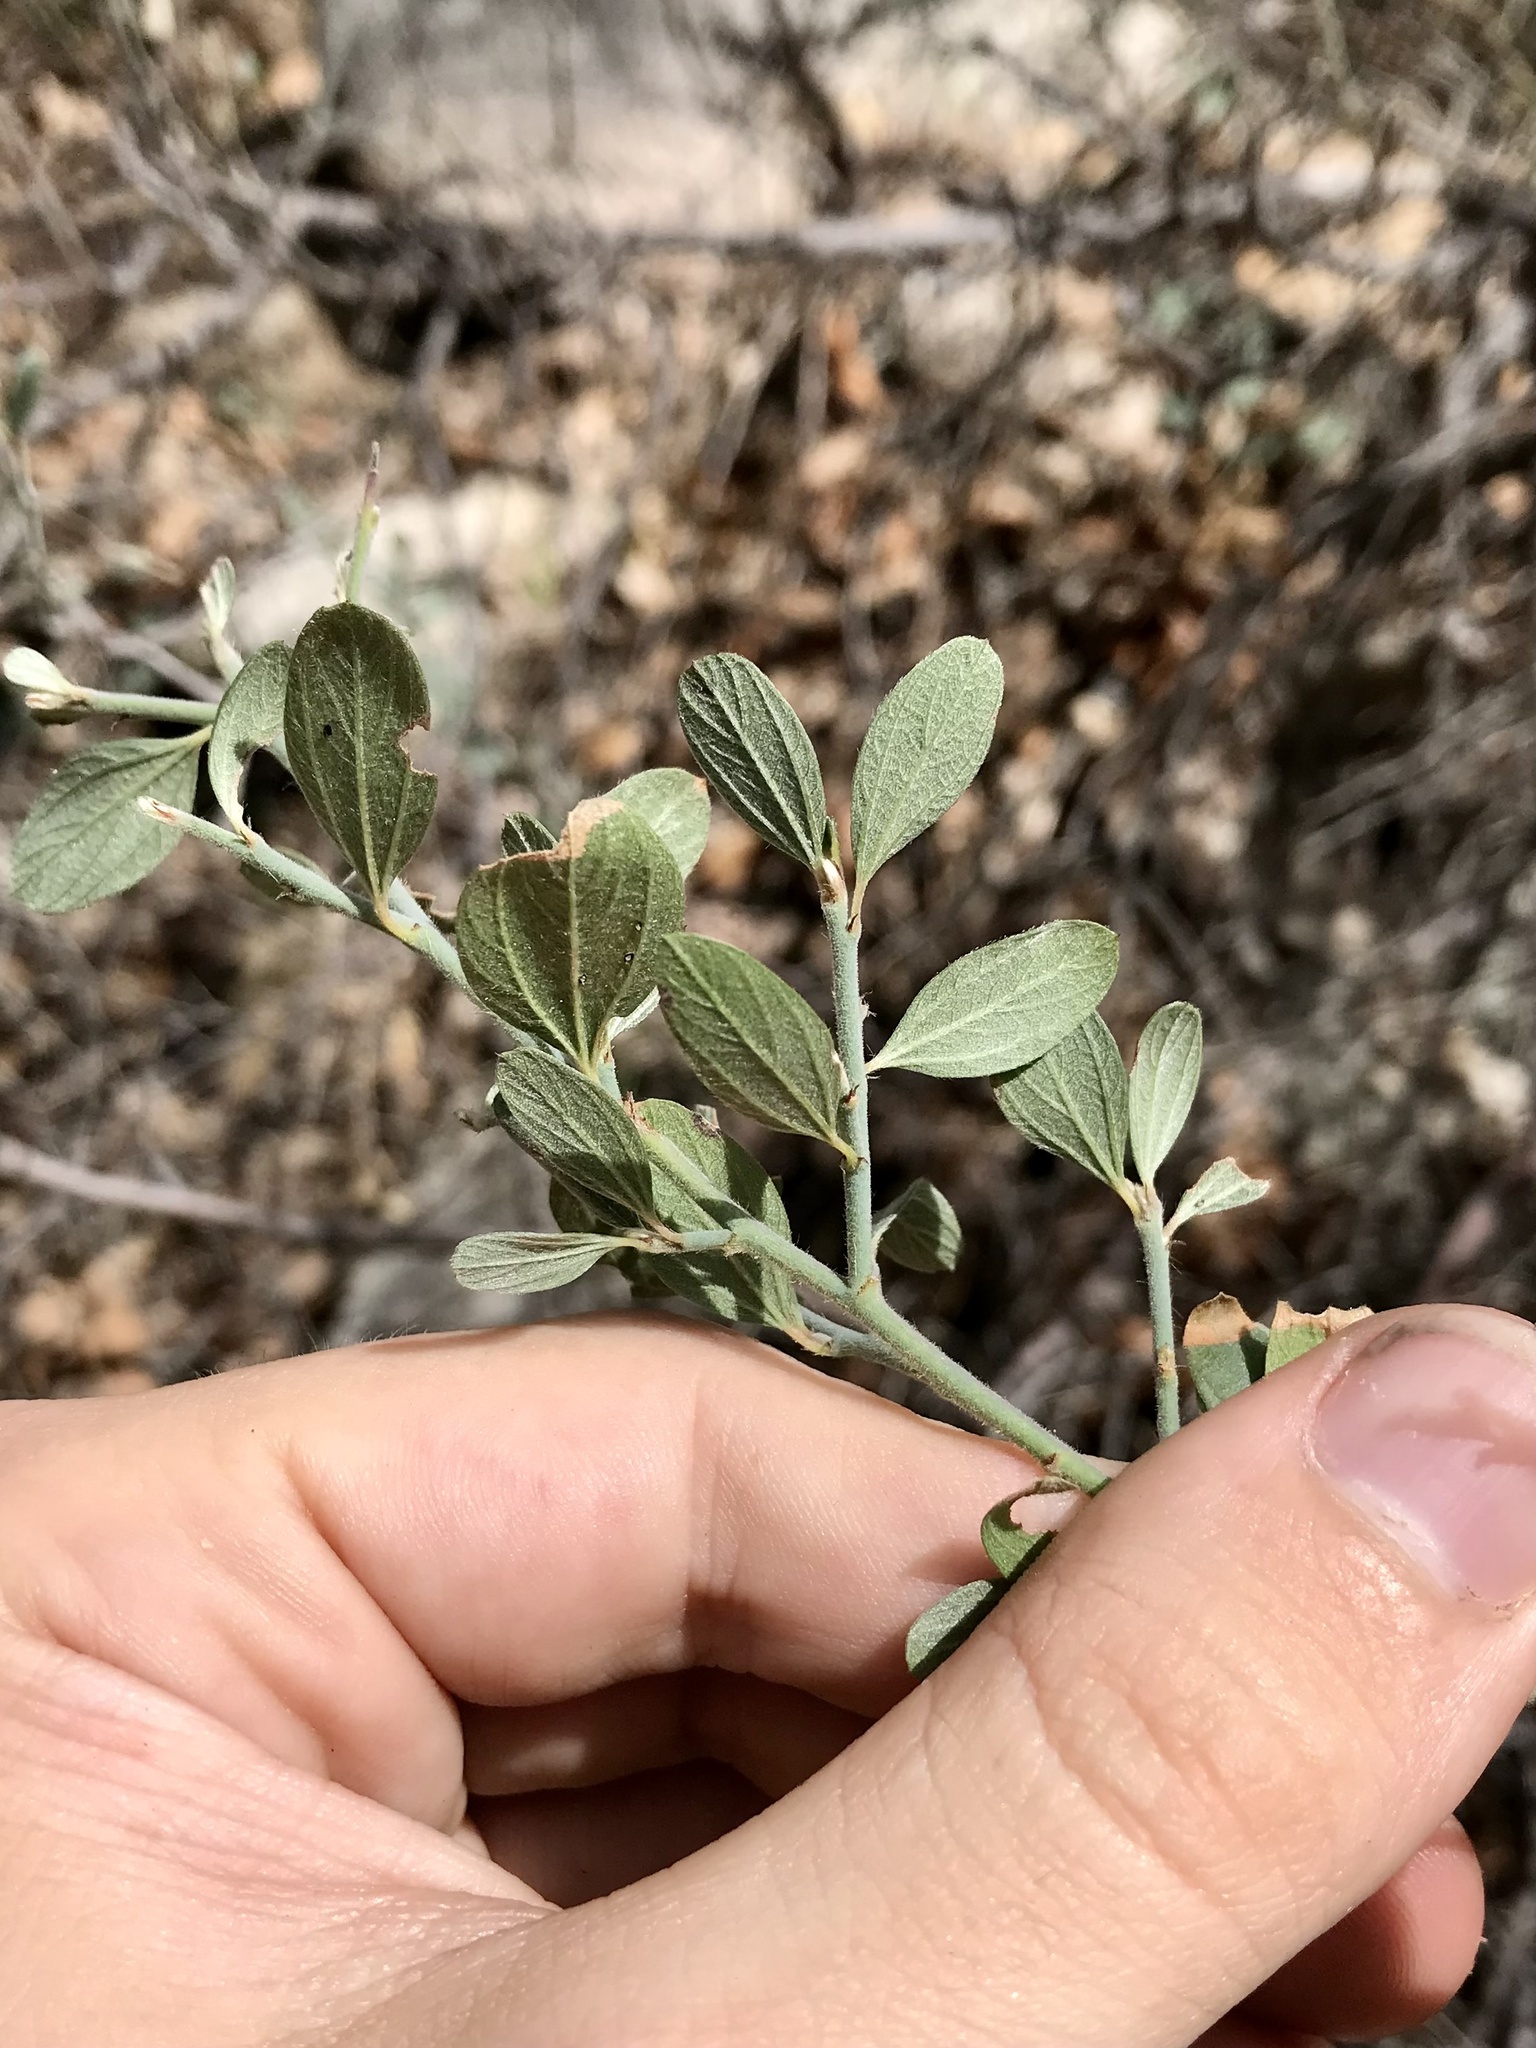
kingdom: Plantae
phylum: Tracheophyta
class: Magnoliopsida
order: Rosales
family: Rhamnaceae
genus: Ceanothus
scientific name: Ceanothus fendleri
